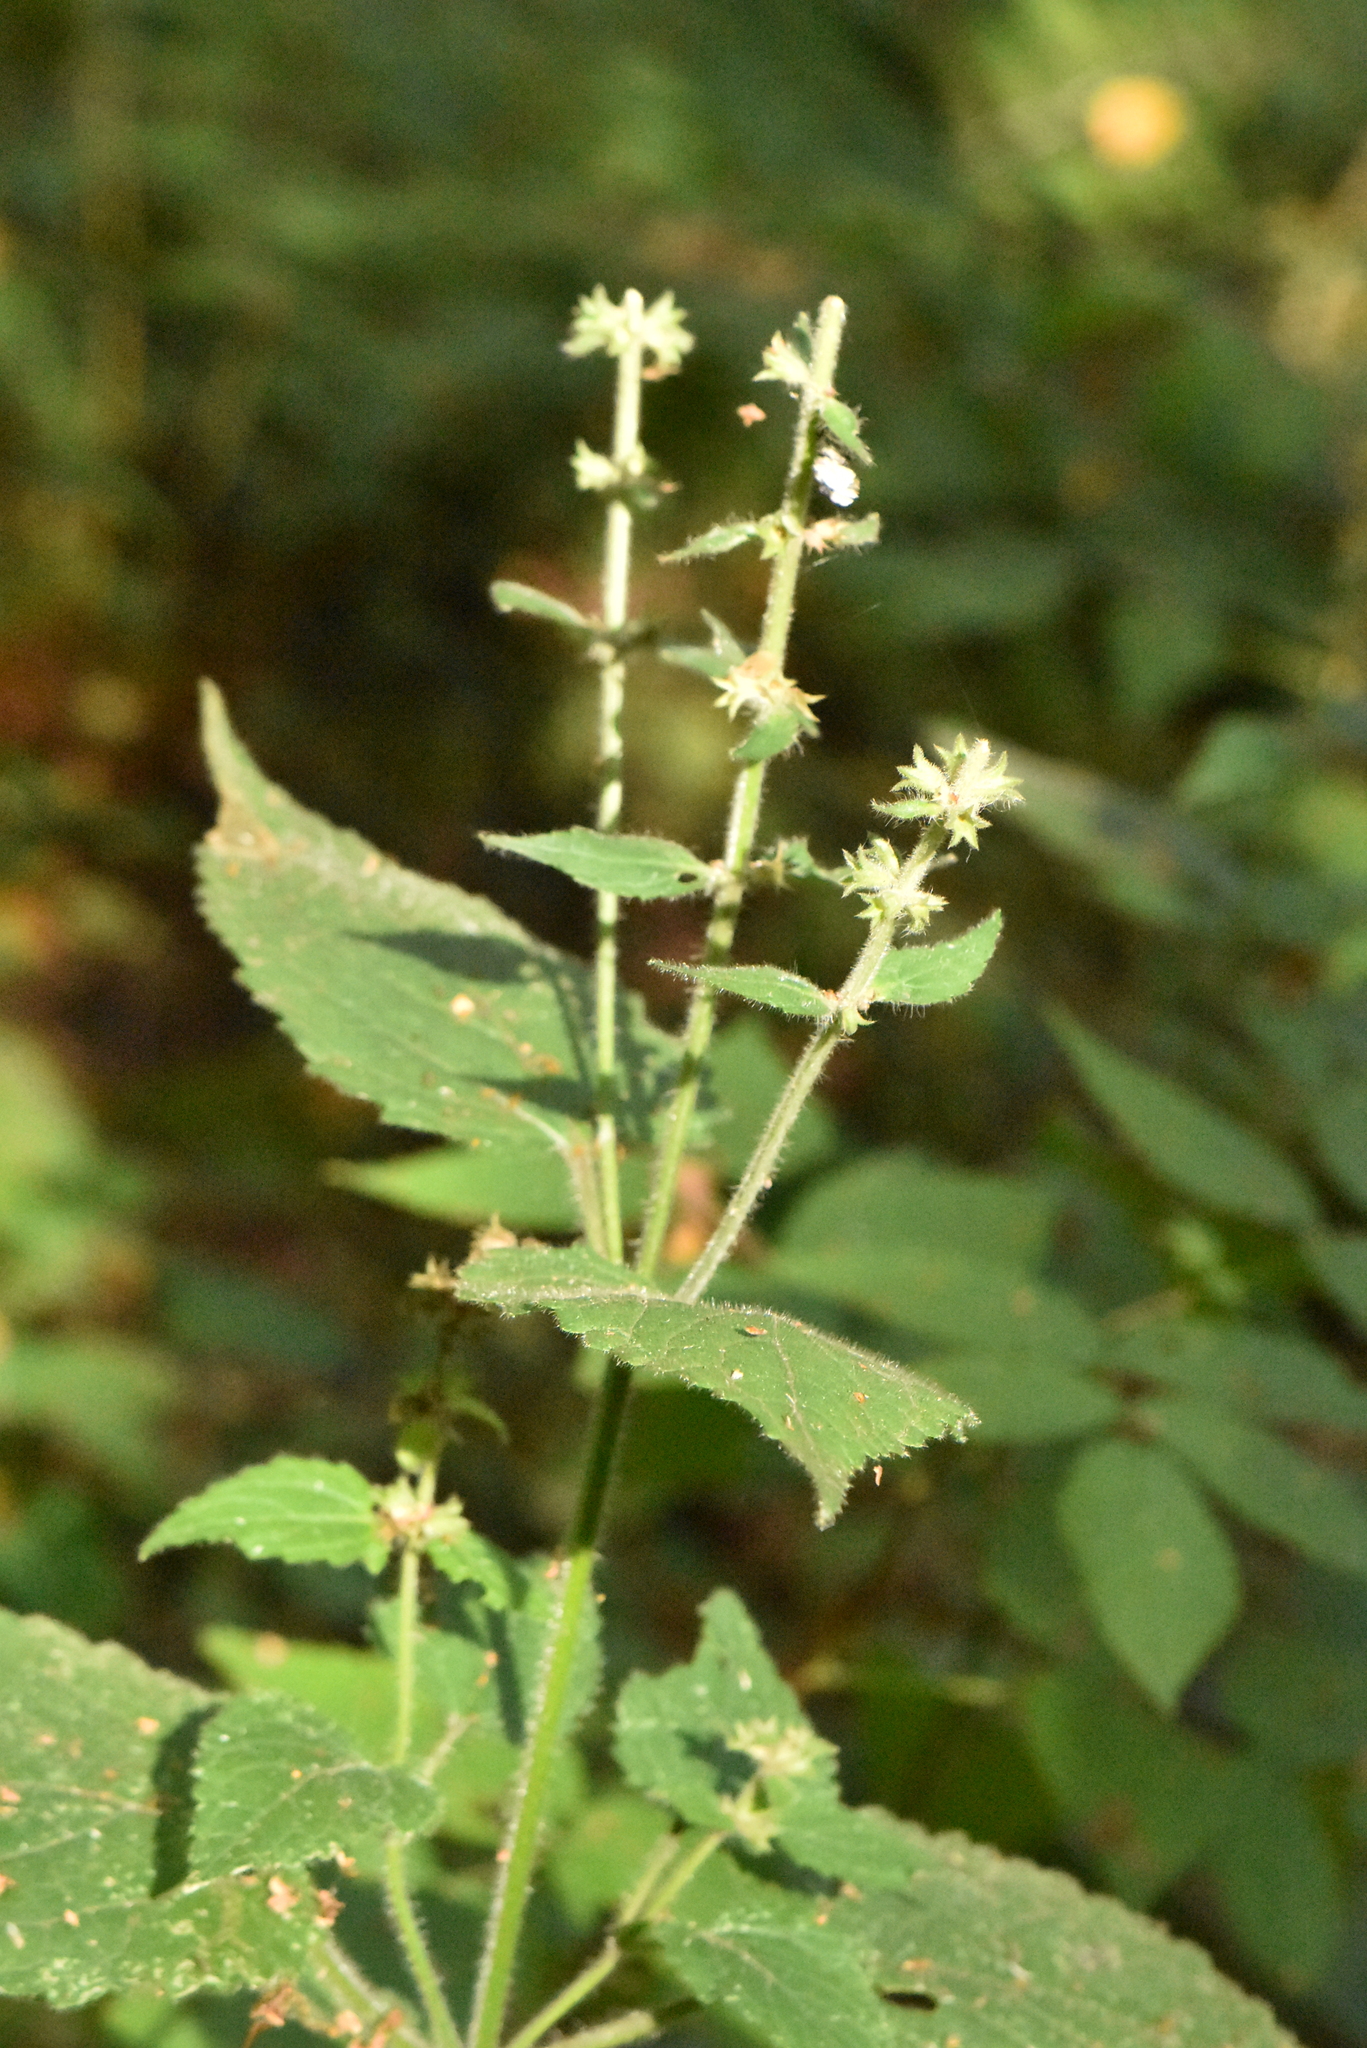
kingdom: Plantae
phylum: Tracheophyta
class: Magnoliopsida
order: Lamiales
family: Lamiaceae
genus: Stachys
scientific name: Stachys sylvatica
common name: Hedge woundwort
